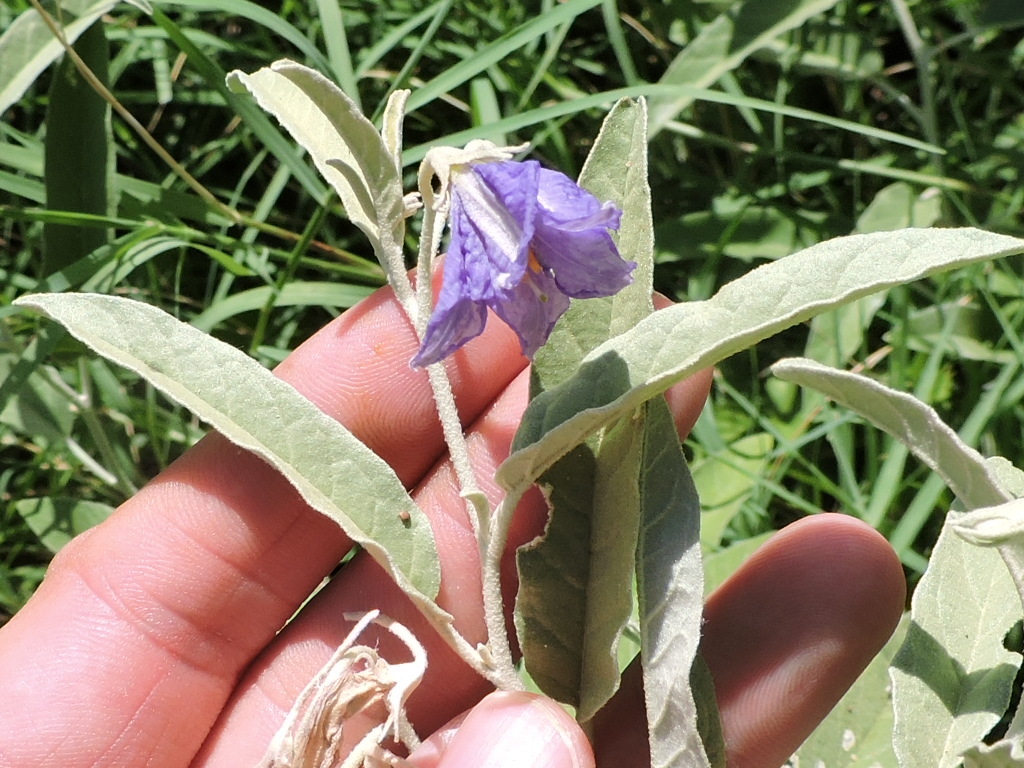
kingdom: Plantae
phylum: Tracheophyta
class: Magnoliopsida
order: Solanales
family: Solanaceae
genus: Solanum
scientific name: Solanum elaeagnifolium
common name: Silverleaf nightshade
